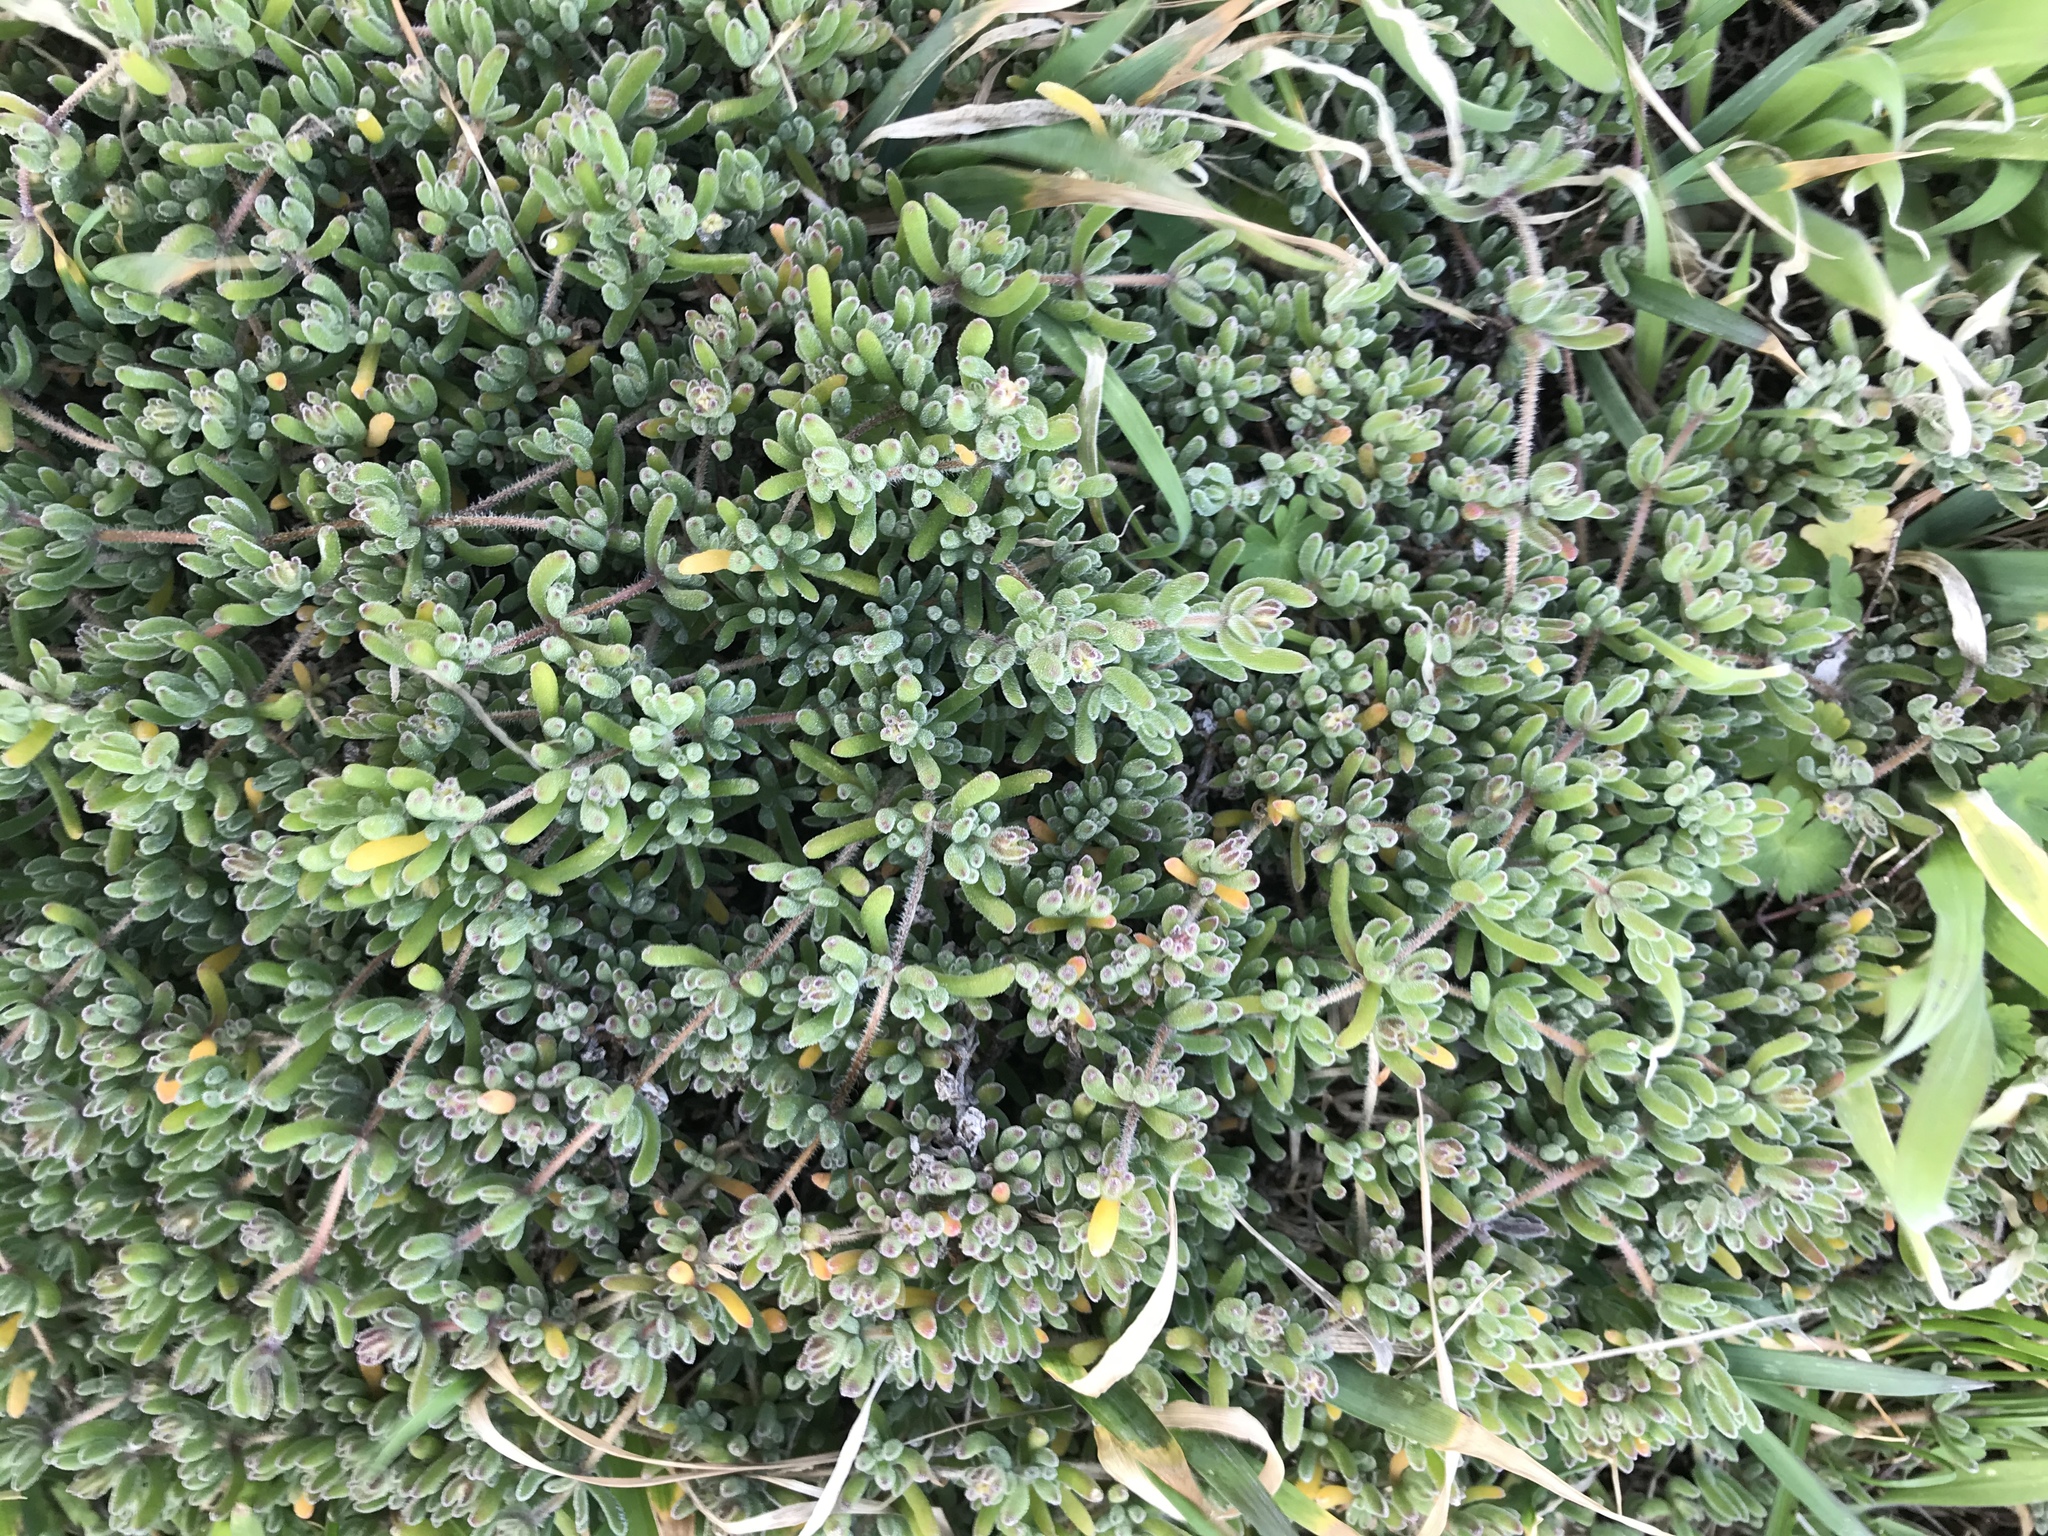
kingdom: Plantae
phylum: Tracheophyta
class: Magnoliopsida
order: Caryophyllales
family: Aizoaceae
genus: Drosanthemum
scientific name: Drosanthemum floribundum
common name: Pale dewplant
